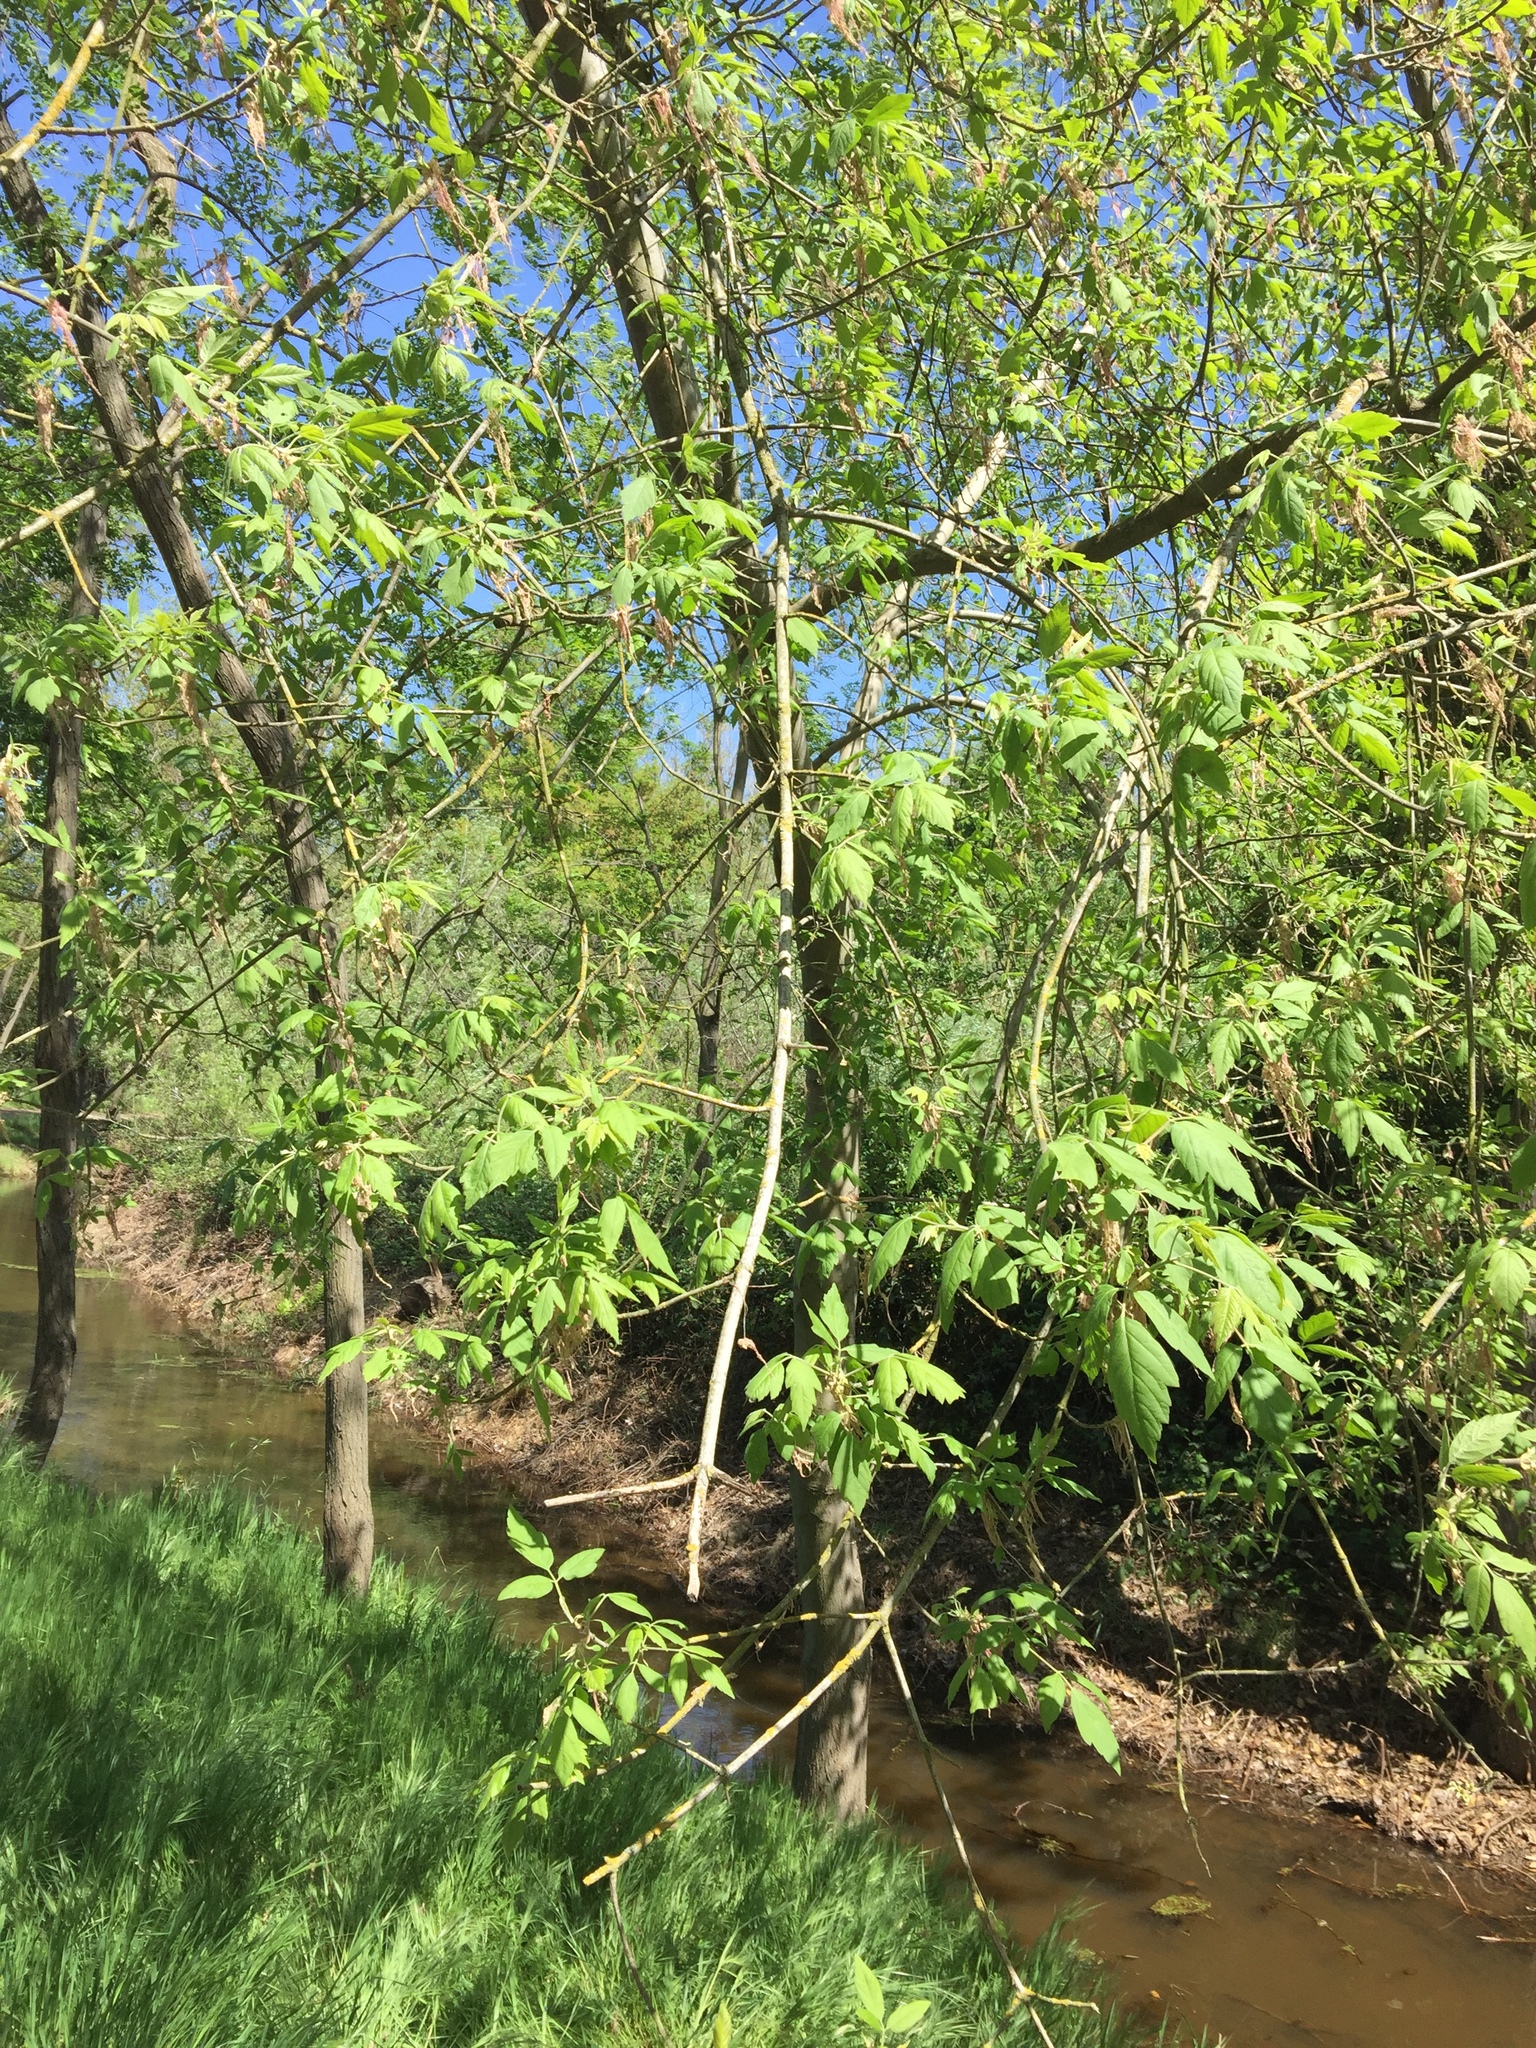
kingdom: Plantae
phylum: Tracheophyta
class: Magnoliopsida
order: Sapindales
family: Sapindaceae
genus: Acer
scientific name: Acer negundo
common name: Ashleaf maple
